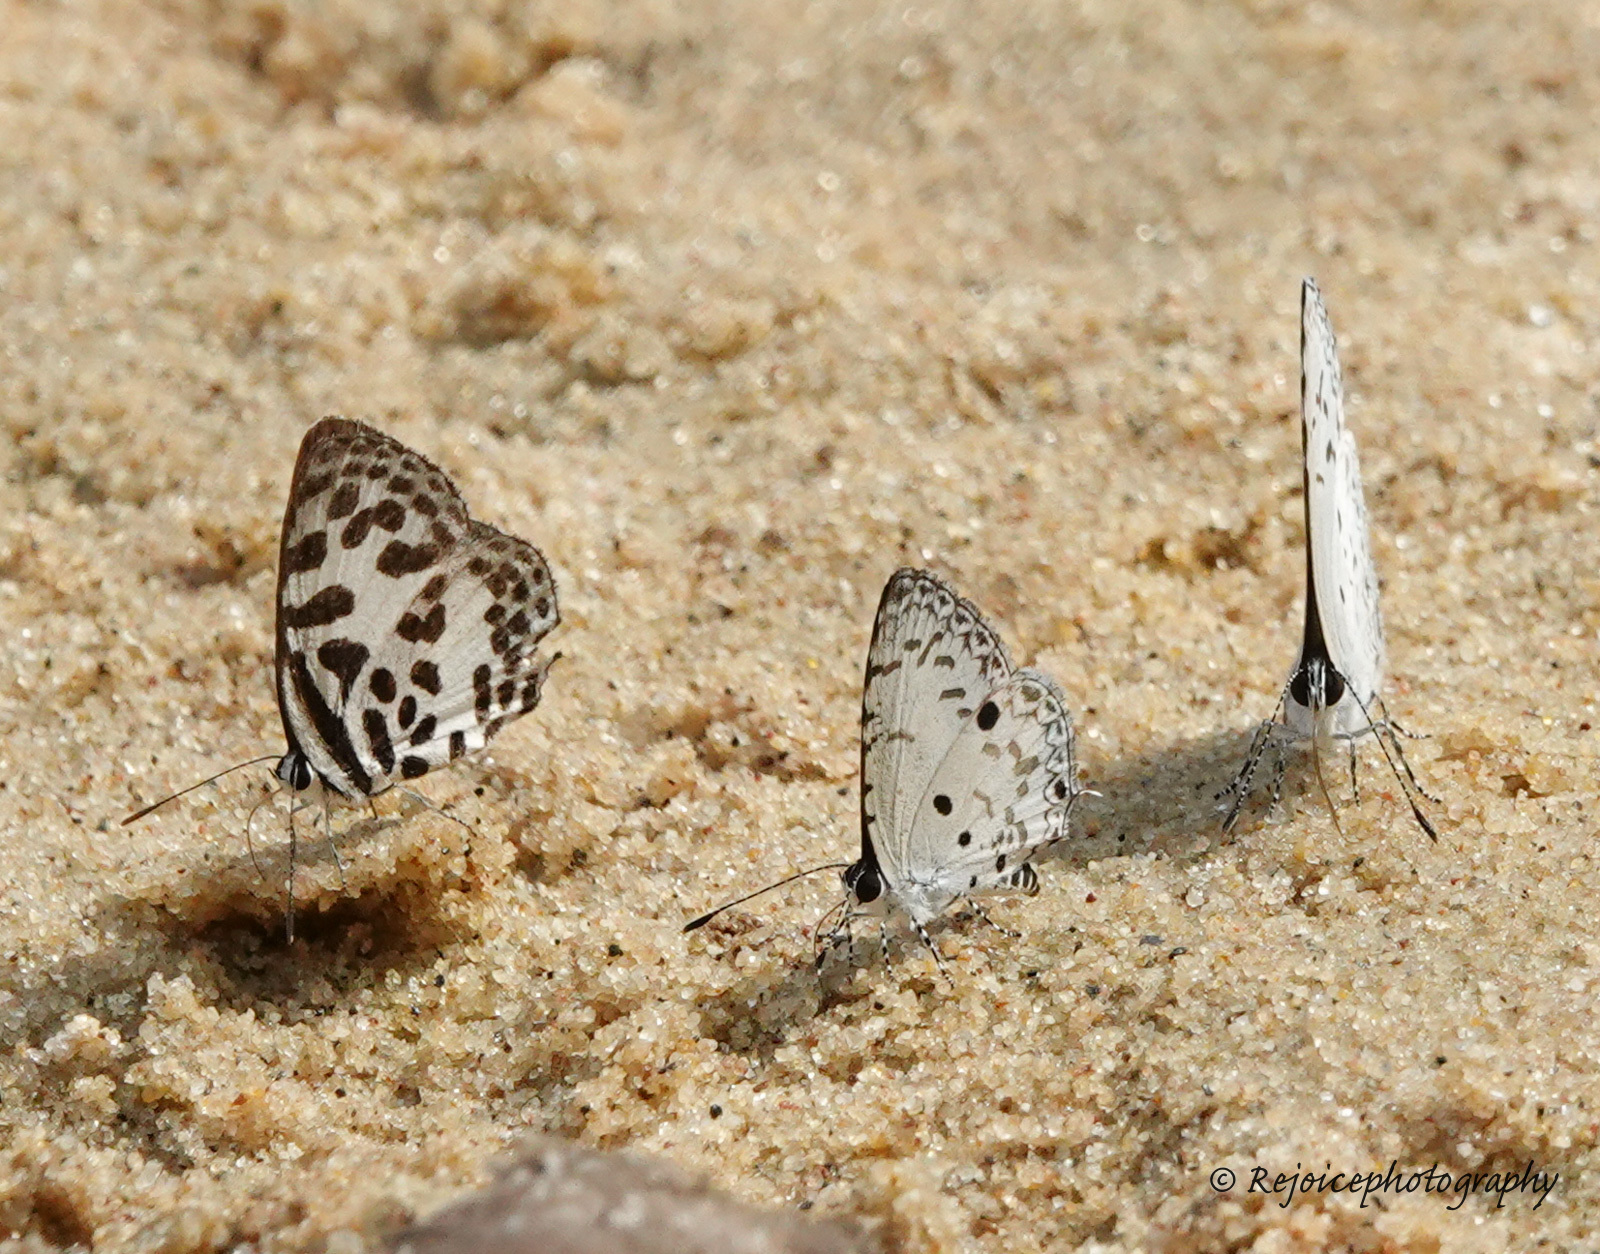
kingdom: Animalia
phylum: Arthropoda
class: Insecta
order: Lepidoptera
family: Lycaenidae
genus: Megisba
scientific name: Megisba malaya
